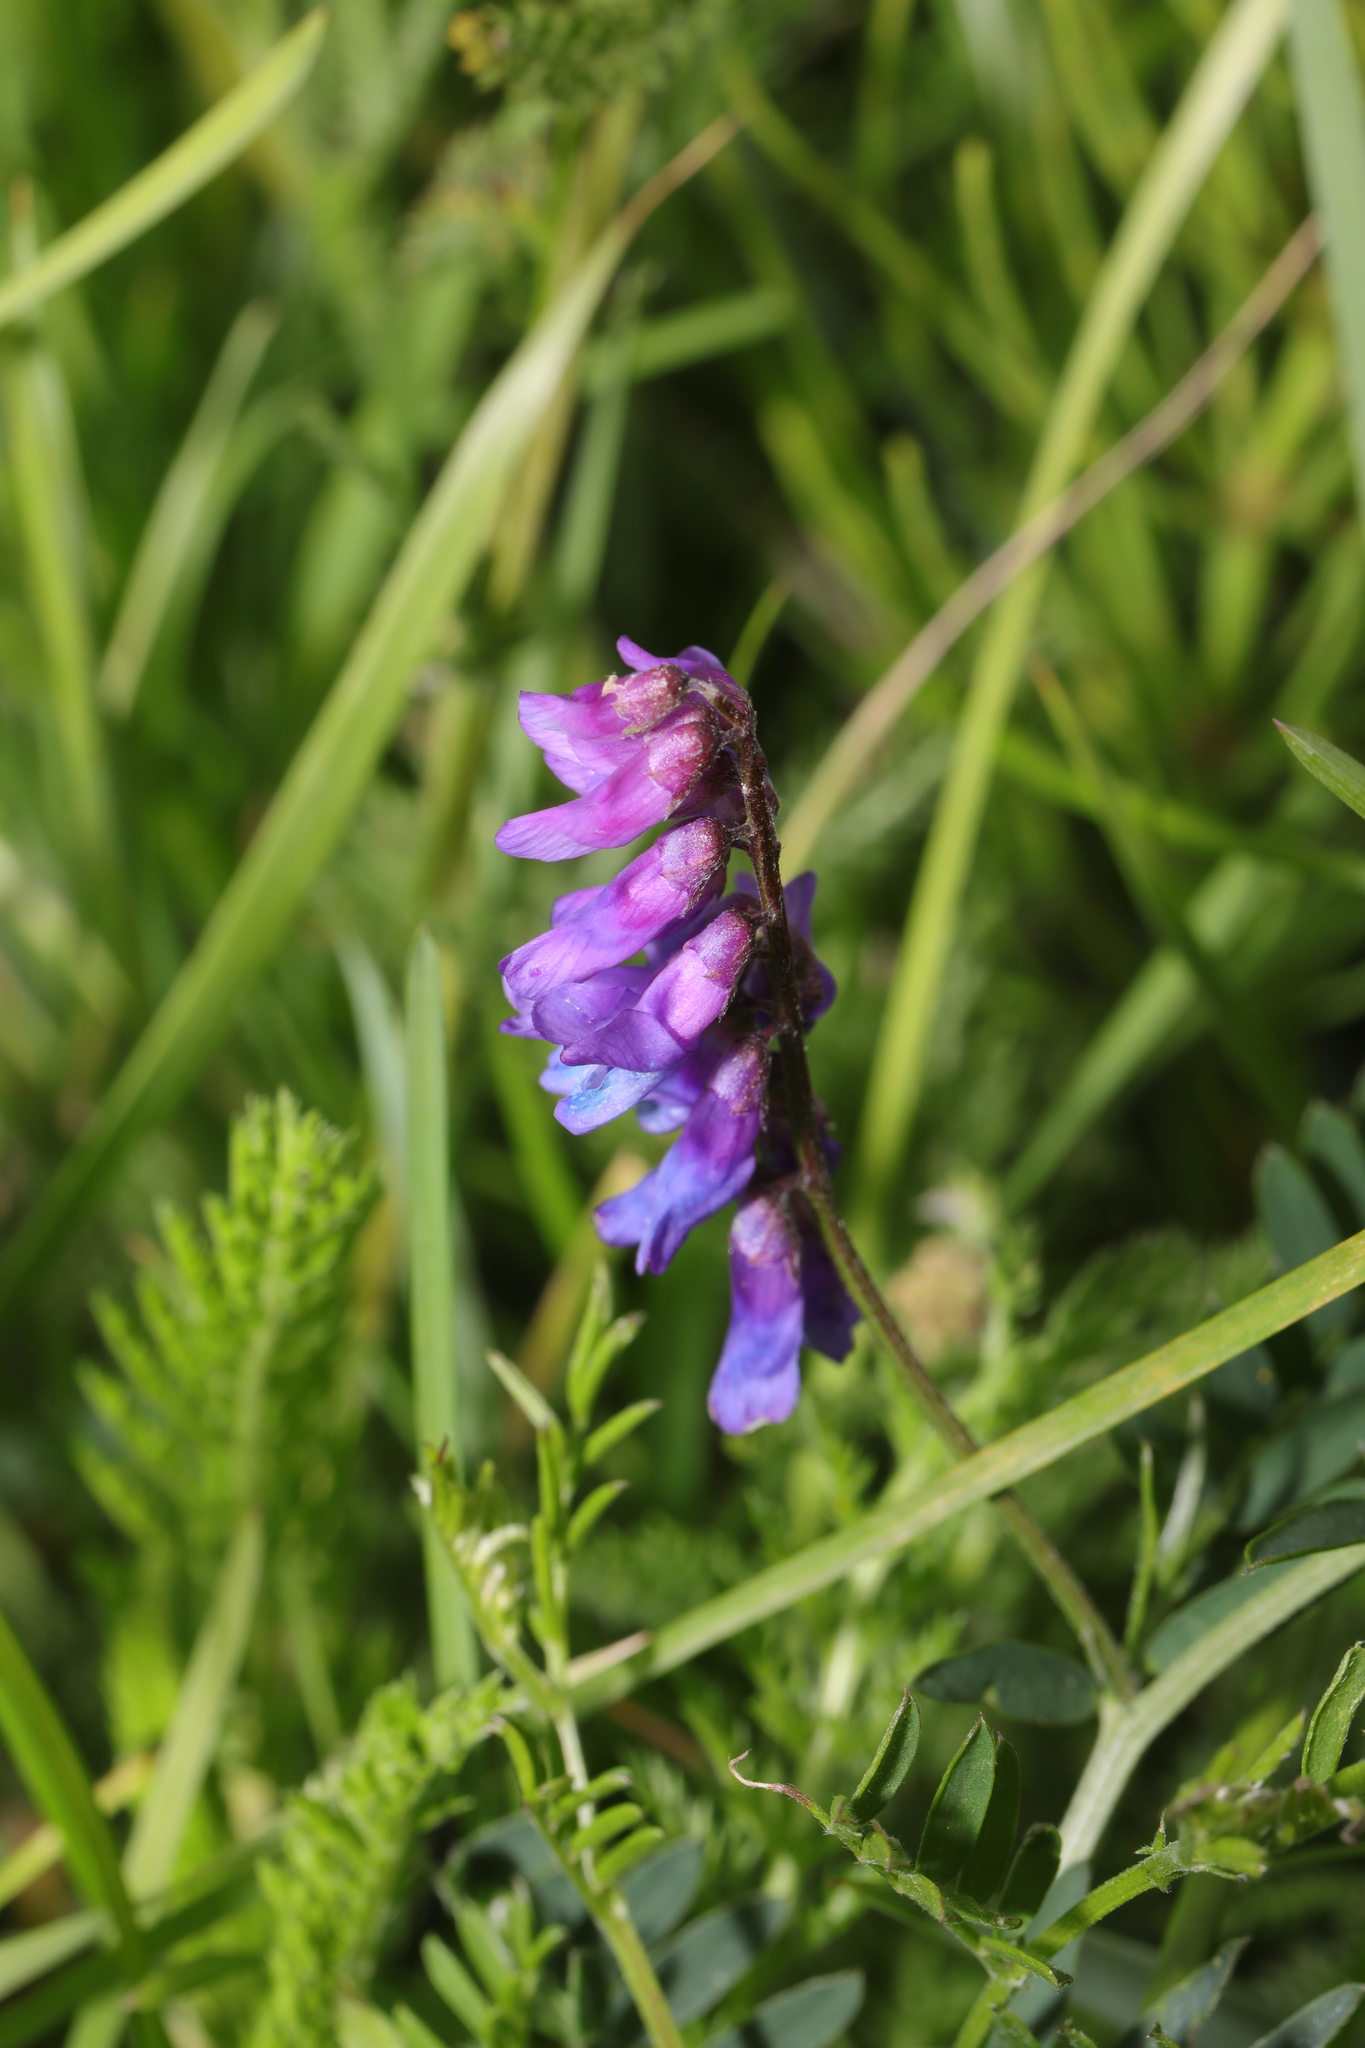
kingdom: Plantae
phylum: Tracheophyta
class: Magnoliopsida
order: Fabales
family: Fabaceae
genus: Vicia
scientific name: Vicia cracca
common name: Bird vetch
